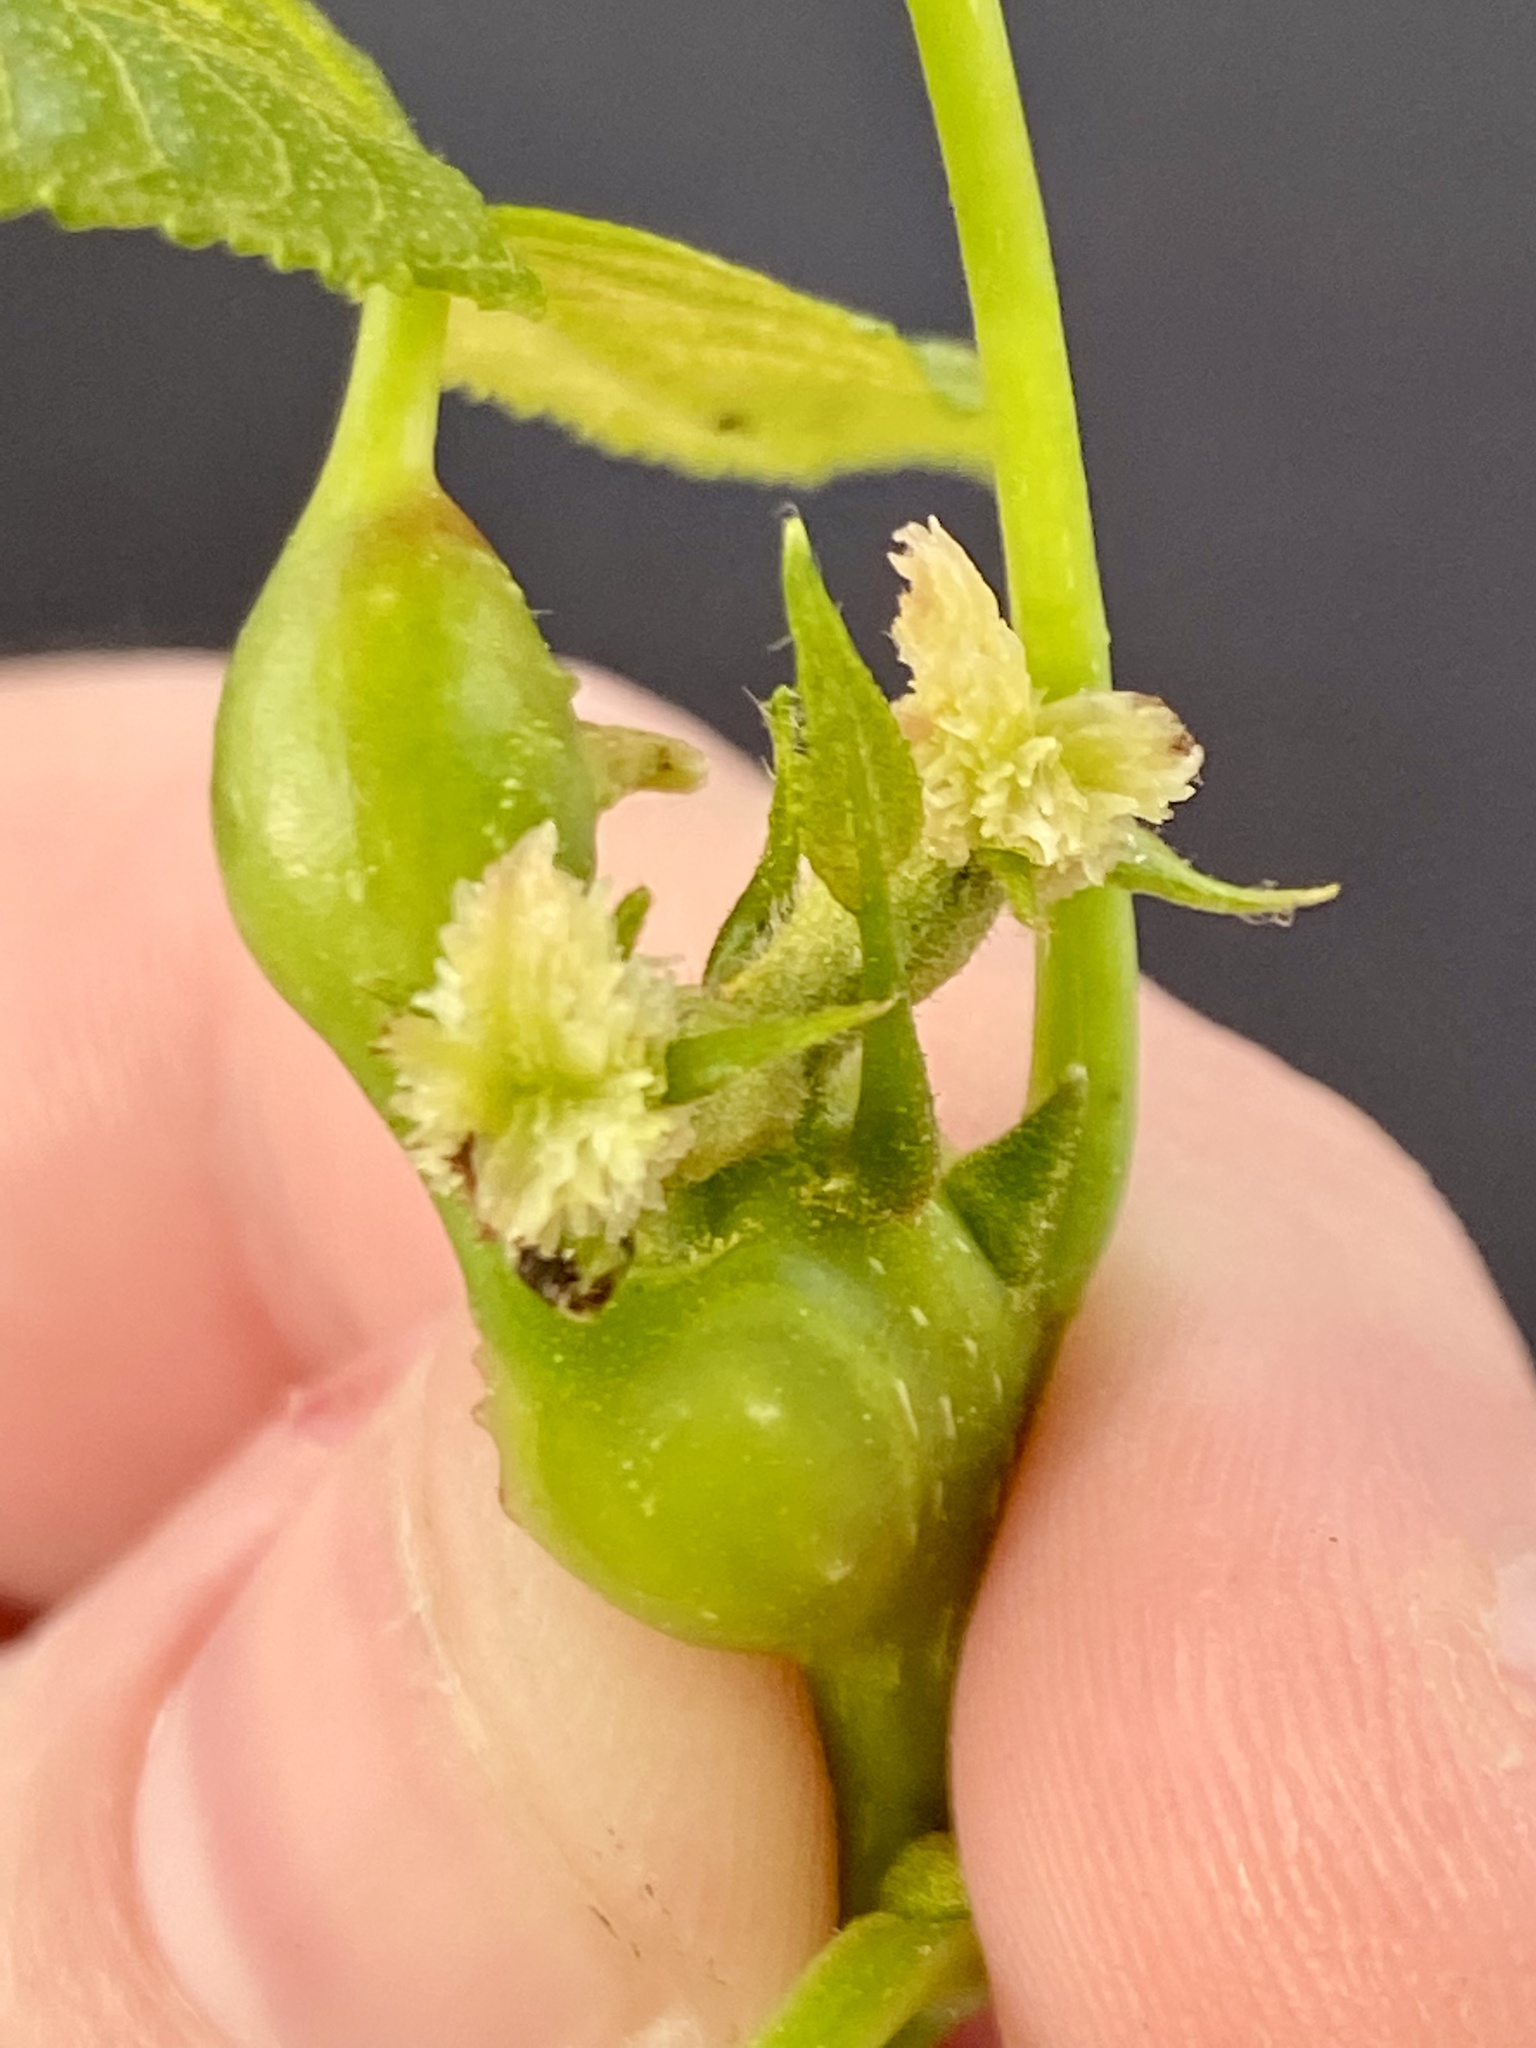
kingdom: Animalia
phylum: Arthropoda
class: Insecta
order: Hemiptera
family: Phylloxeridae
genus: Phylloxera
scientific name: Phylloxera spinosa
